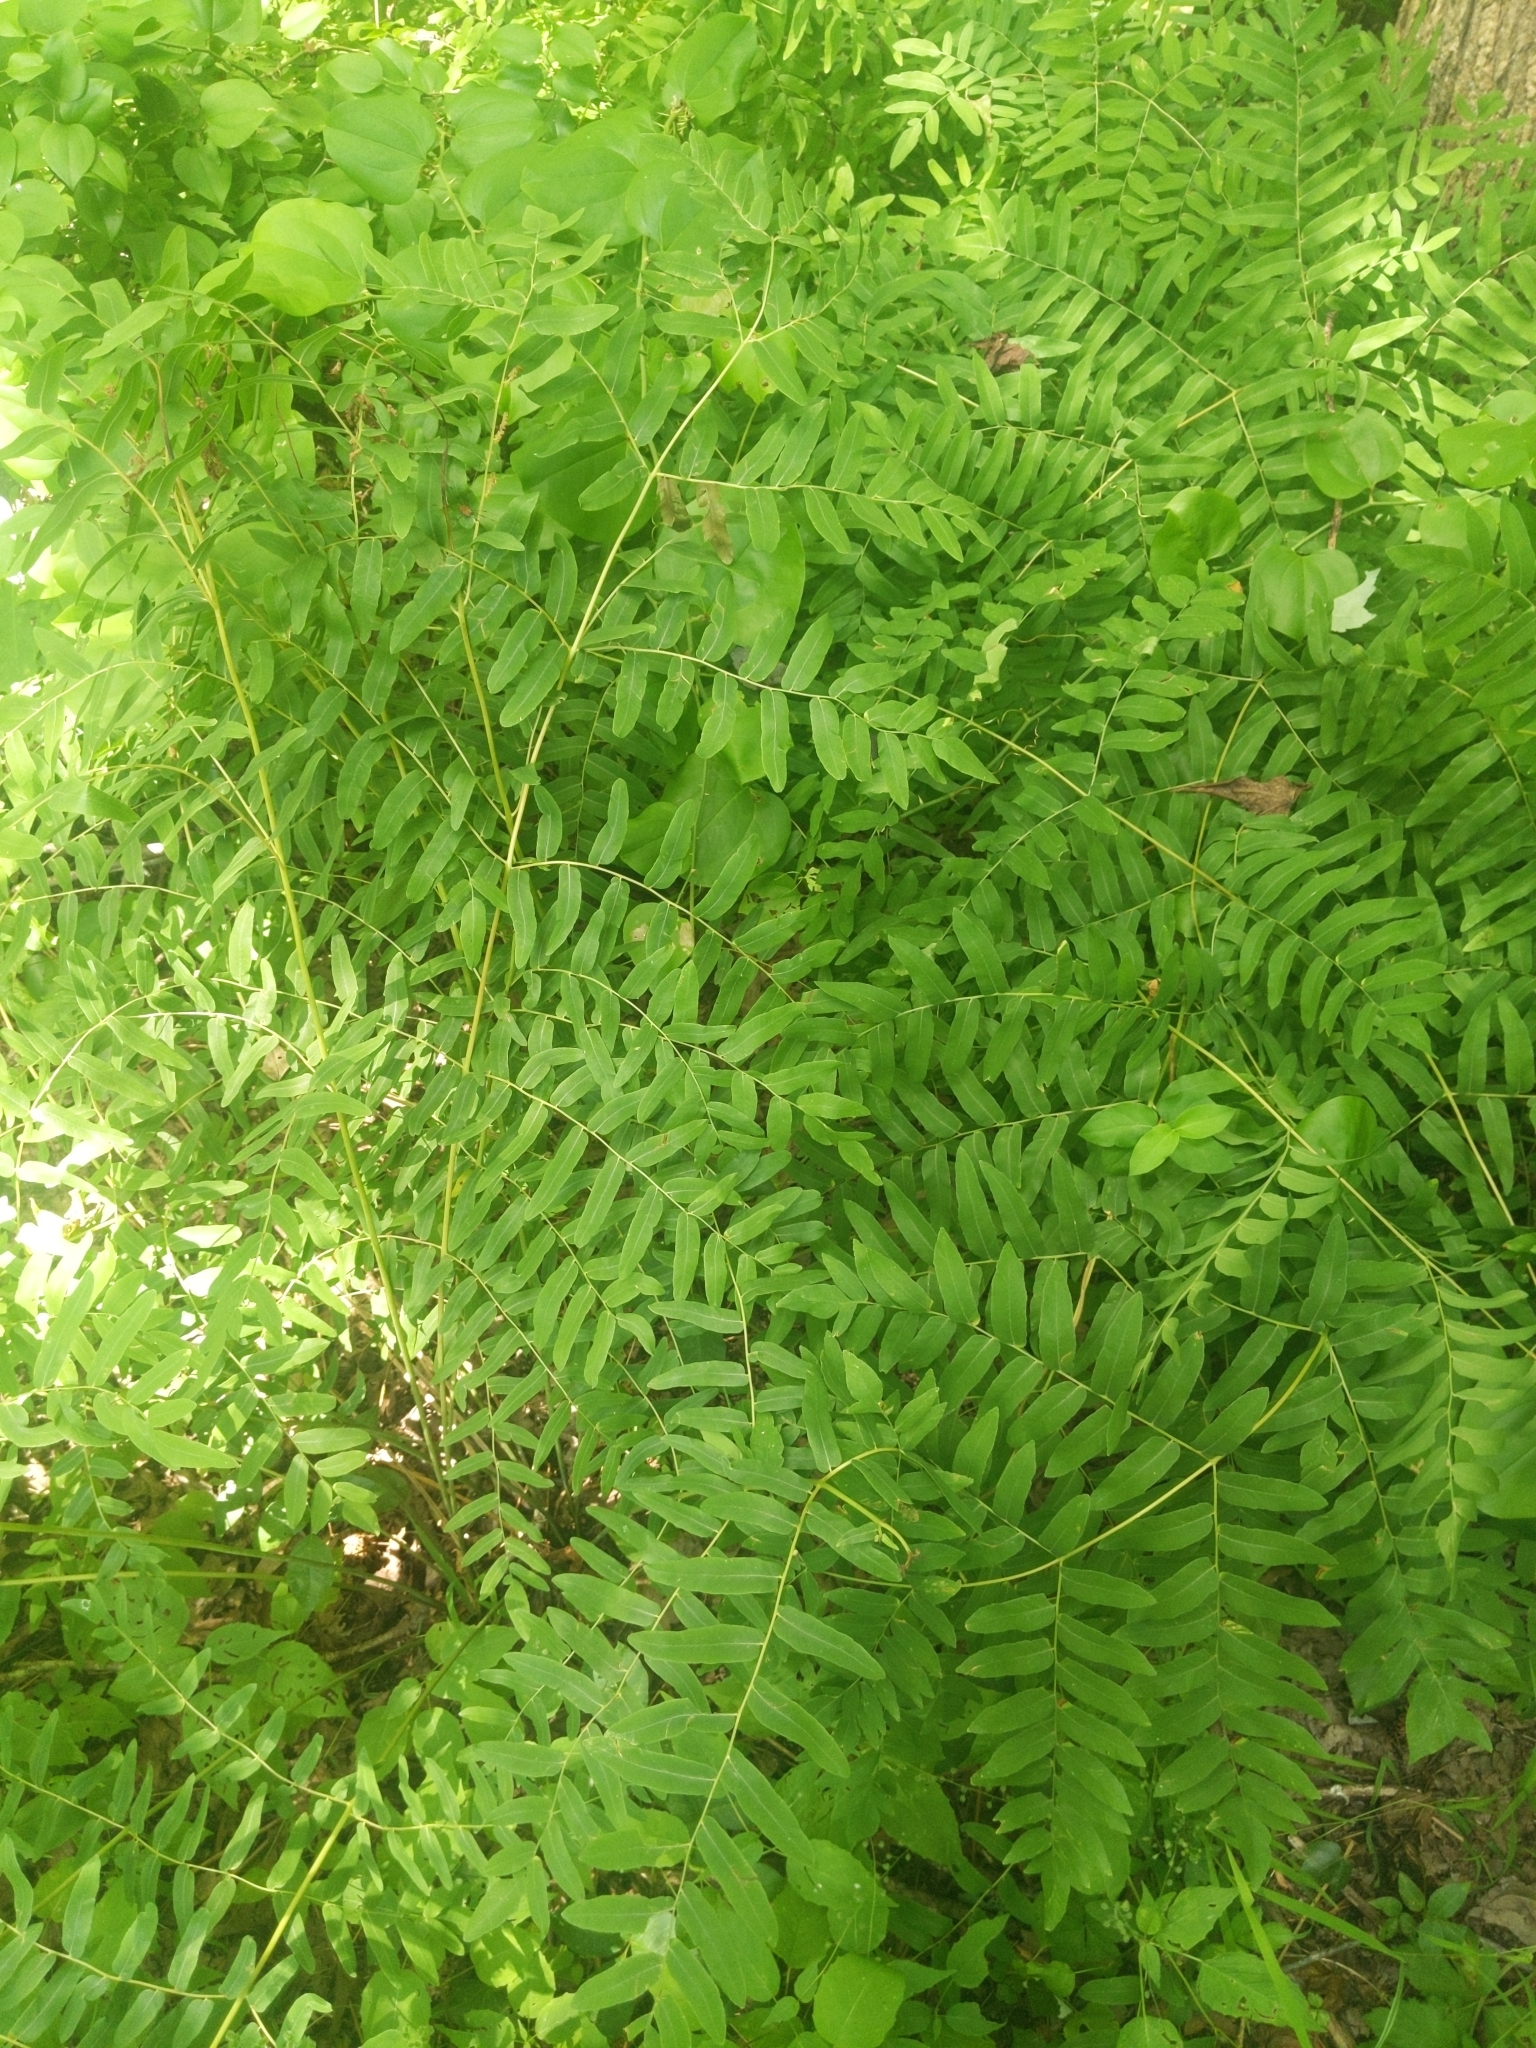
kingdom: Plantae
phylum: Tracheophyta
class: Polypodiopsida
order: Osmundales
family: Osmundaceae
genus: Osmunda
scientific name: Osmunda spectabilis
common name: American royal fern
